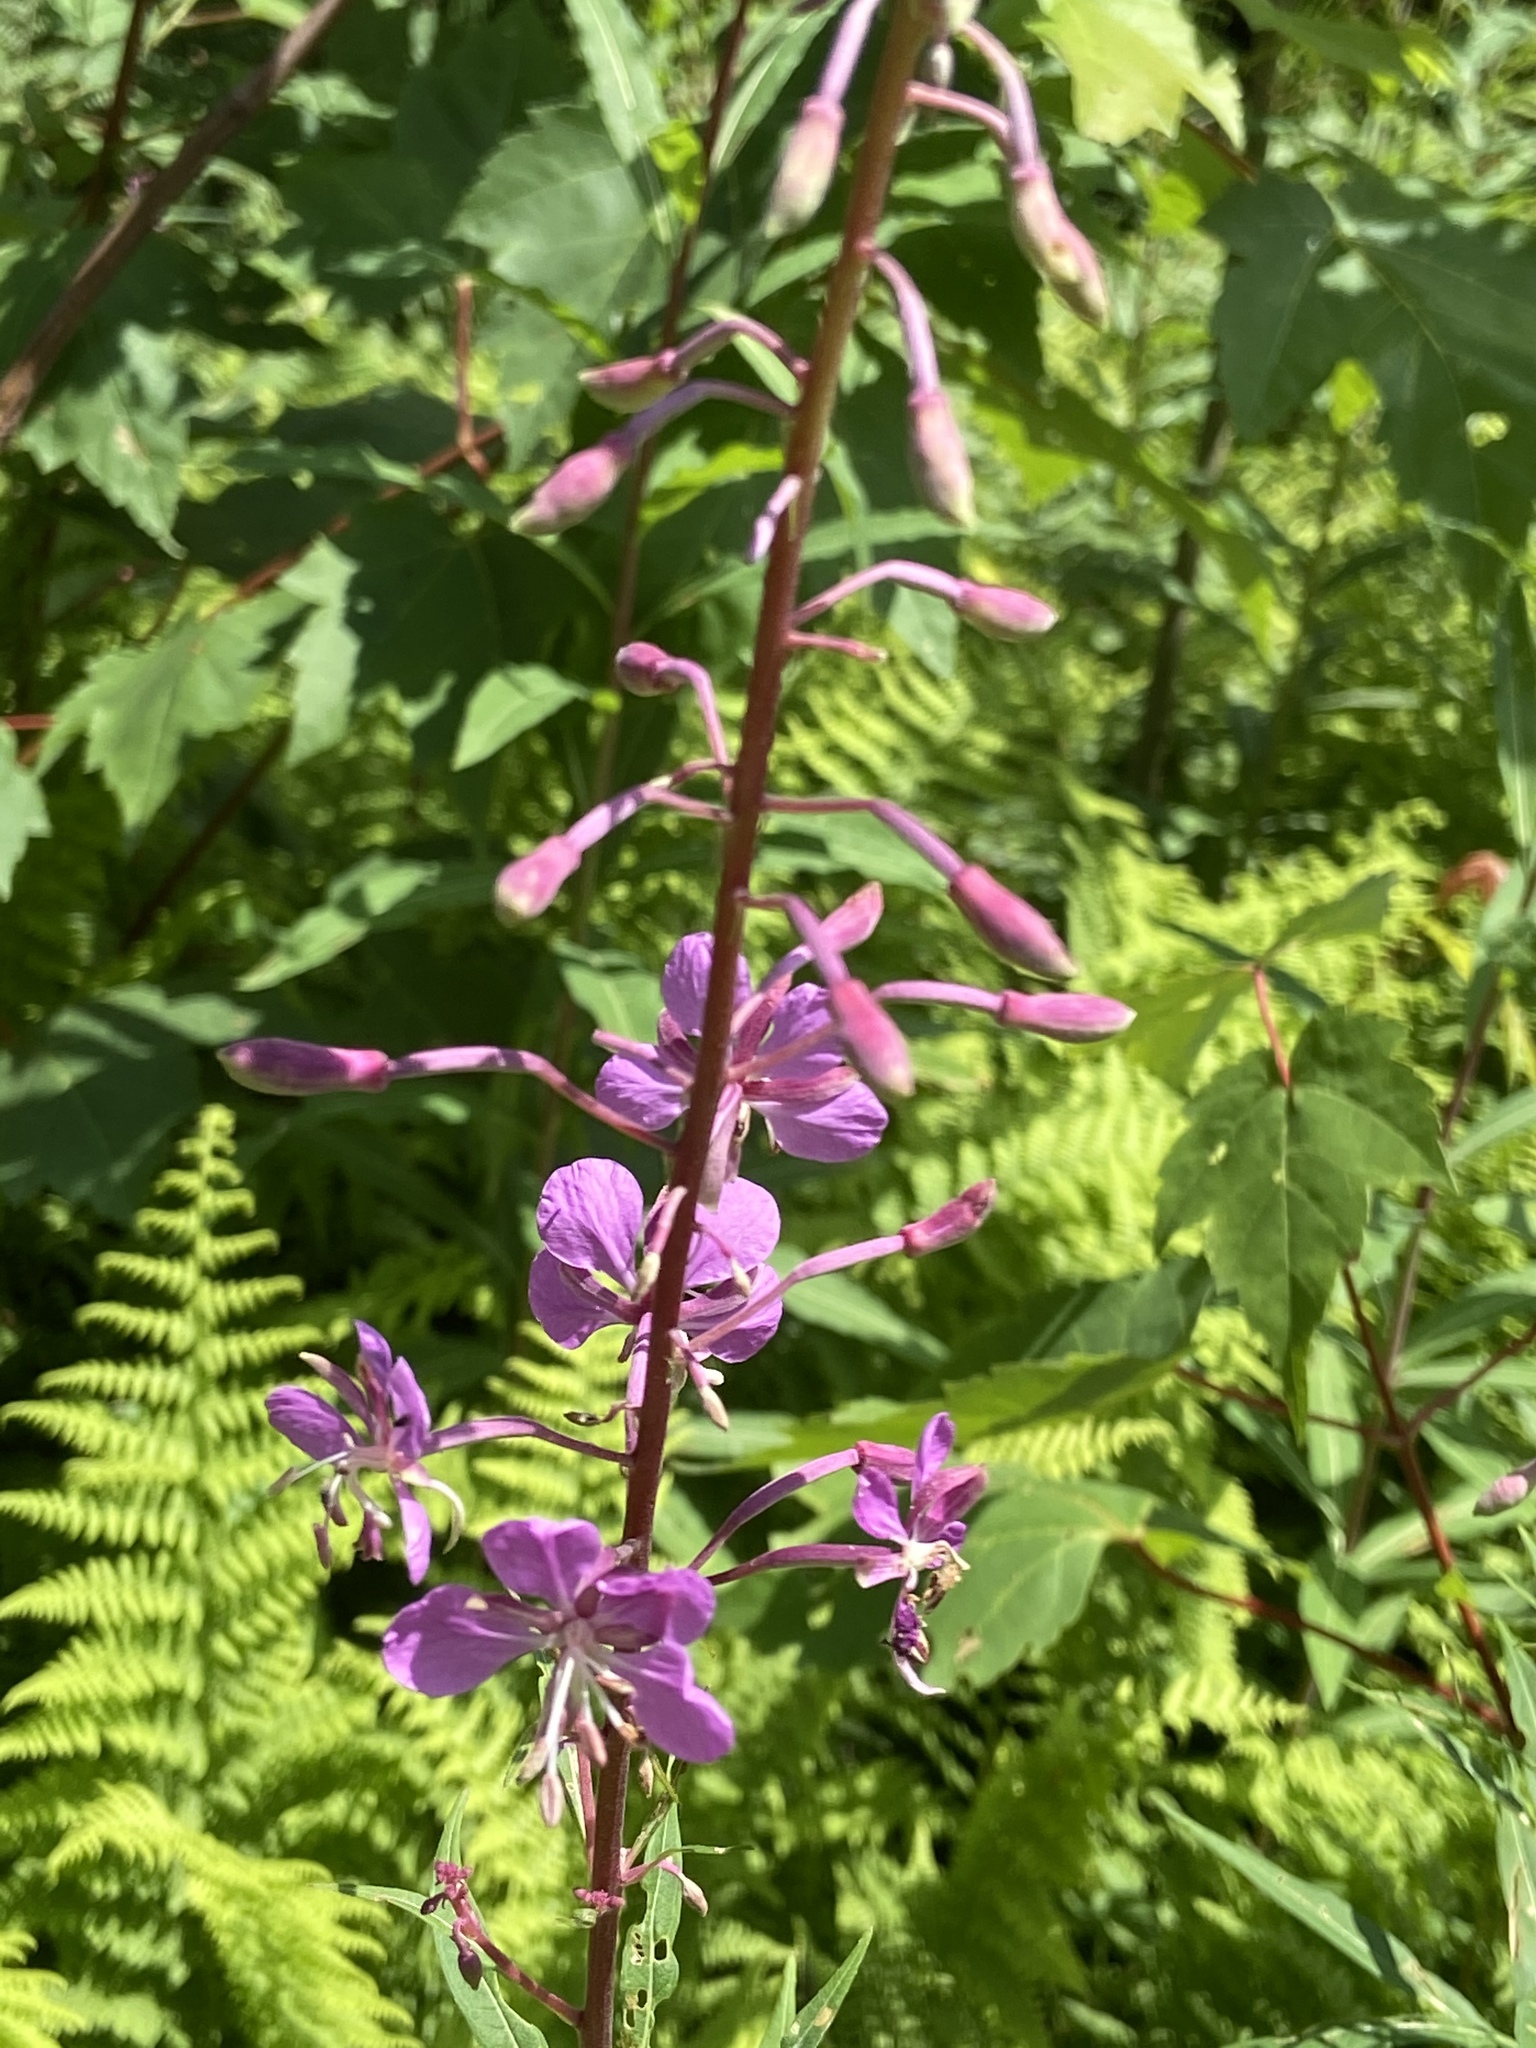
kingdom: Plantae
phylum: Tracheophyta
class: Magnoliopsida
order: Myrtales
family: Onagraceae
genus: Chamaenerion
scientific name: Chamaenerion angustifolium
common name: Fireweed
